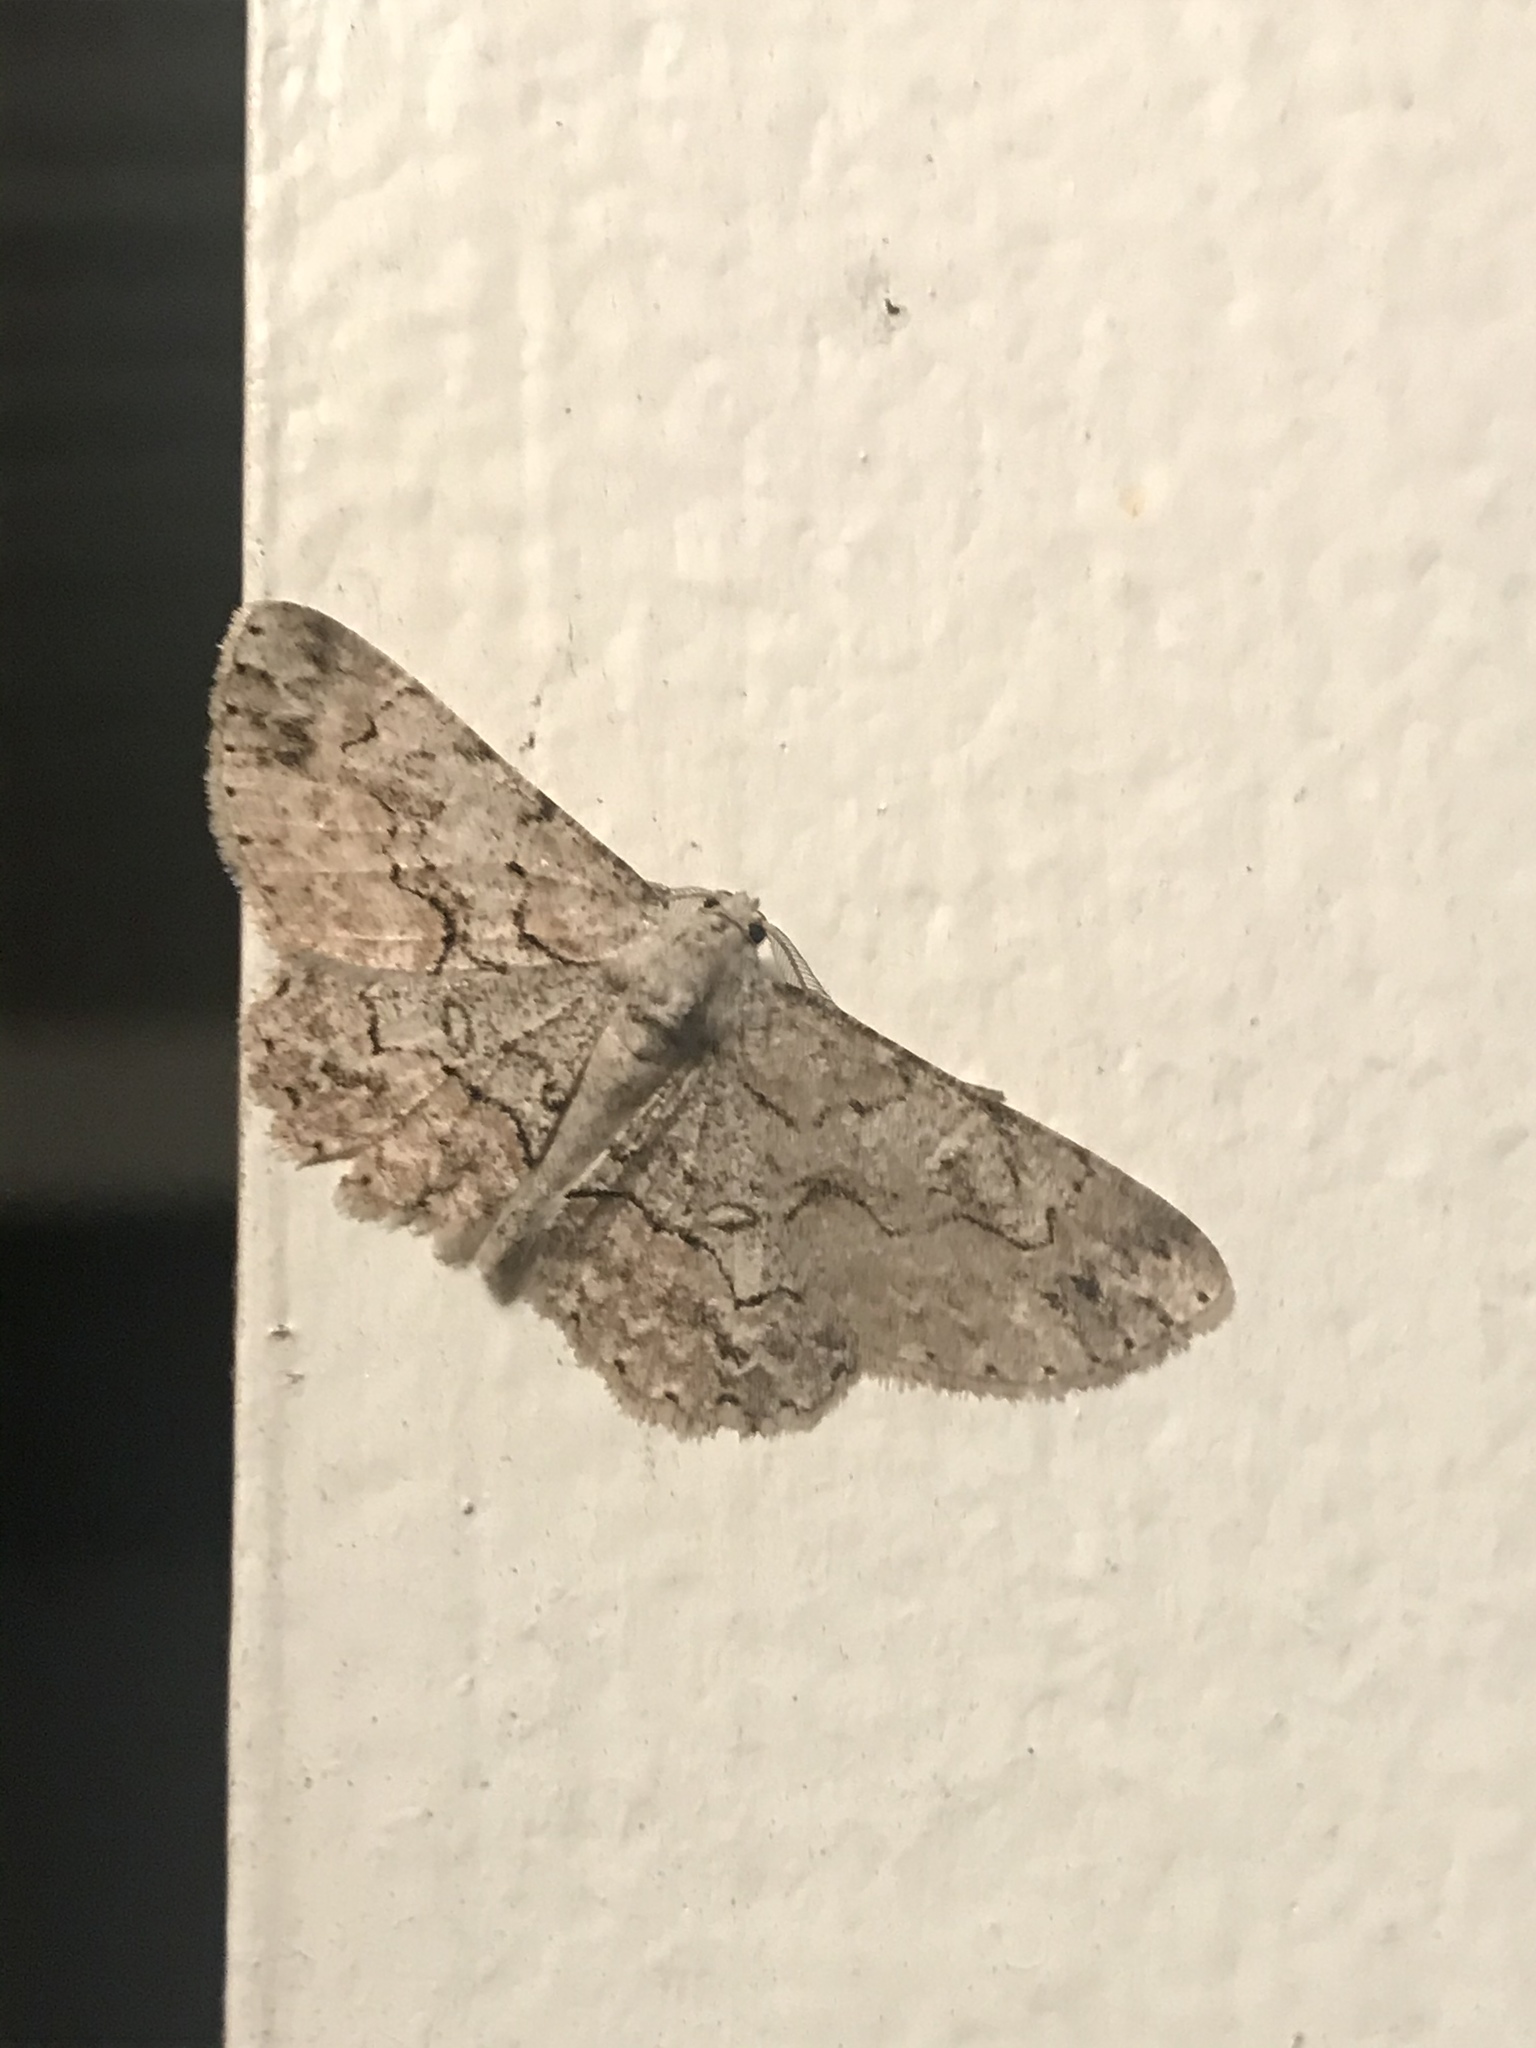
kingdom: Animalia
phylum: Arthropoda
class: Insecta
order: Lepidoptera
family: Geometridae
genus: Iridopsis
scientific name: Iridopsis defectaria
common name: Brown-shaded gray
